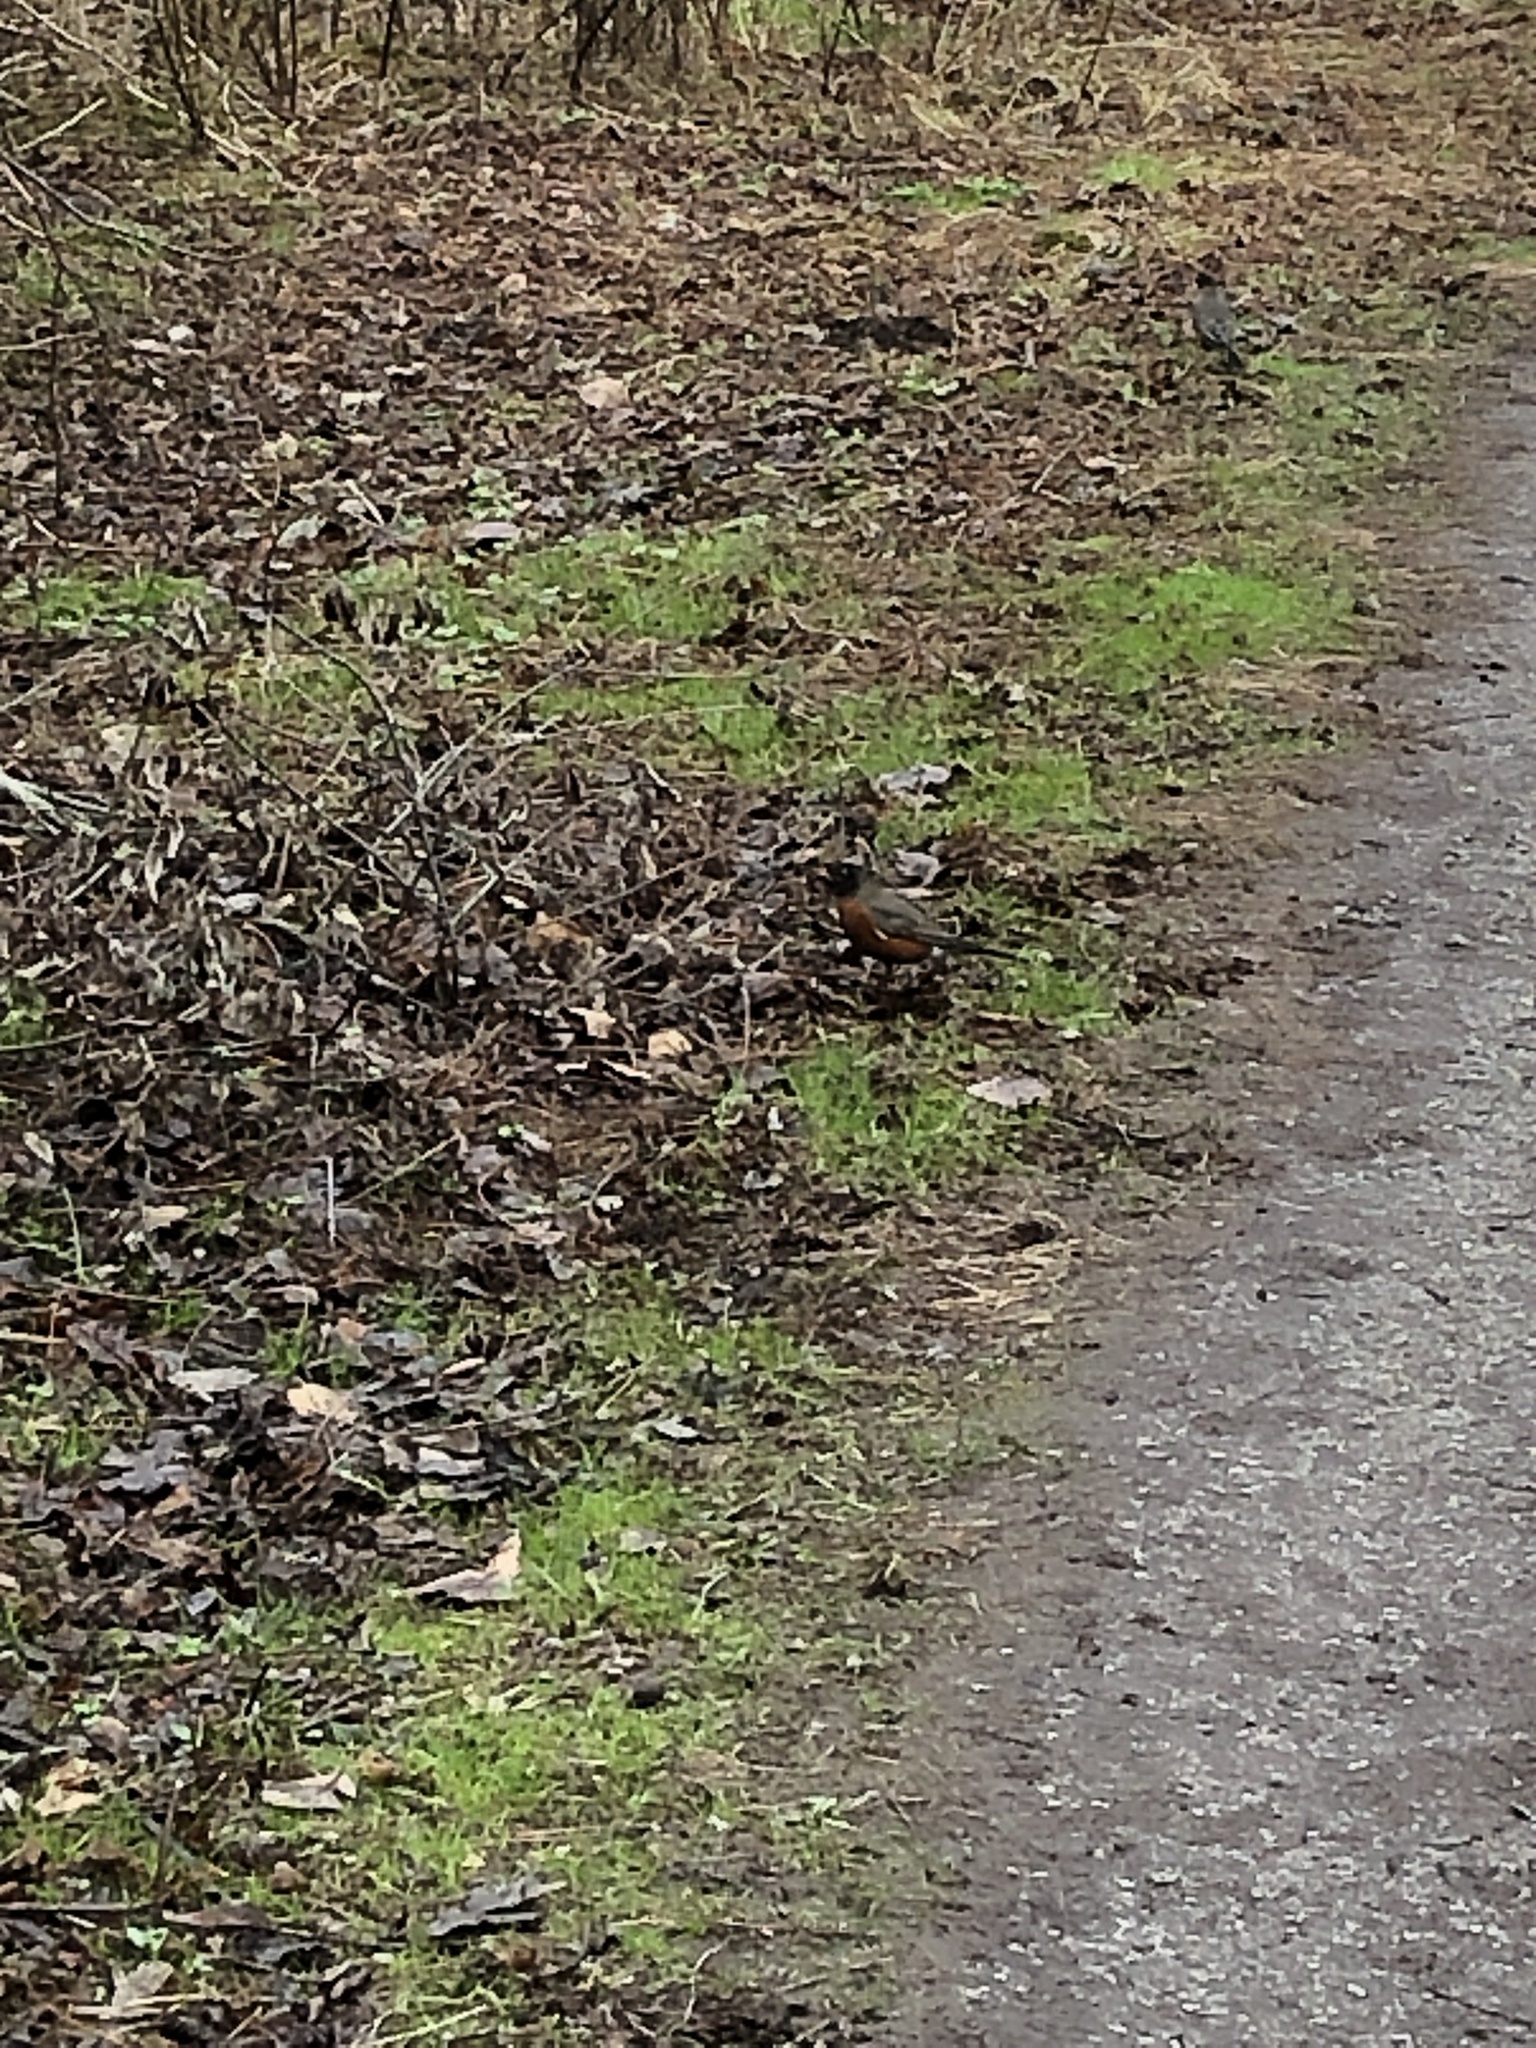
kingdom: Animalia
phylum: Chordata
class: Aves
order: Passeriformes
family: Turdidae
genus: Turdus
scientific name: Turdus migratorius
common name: American robin
